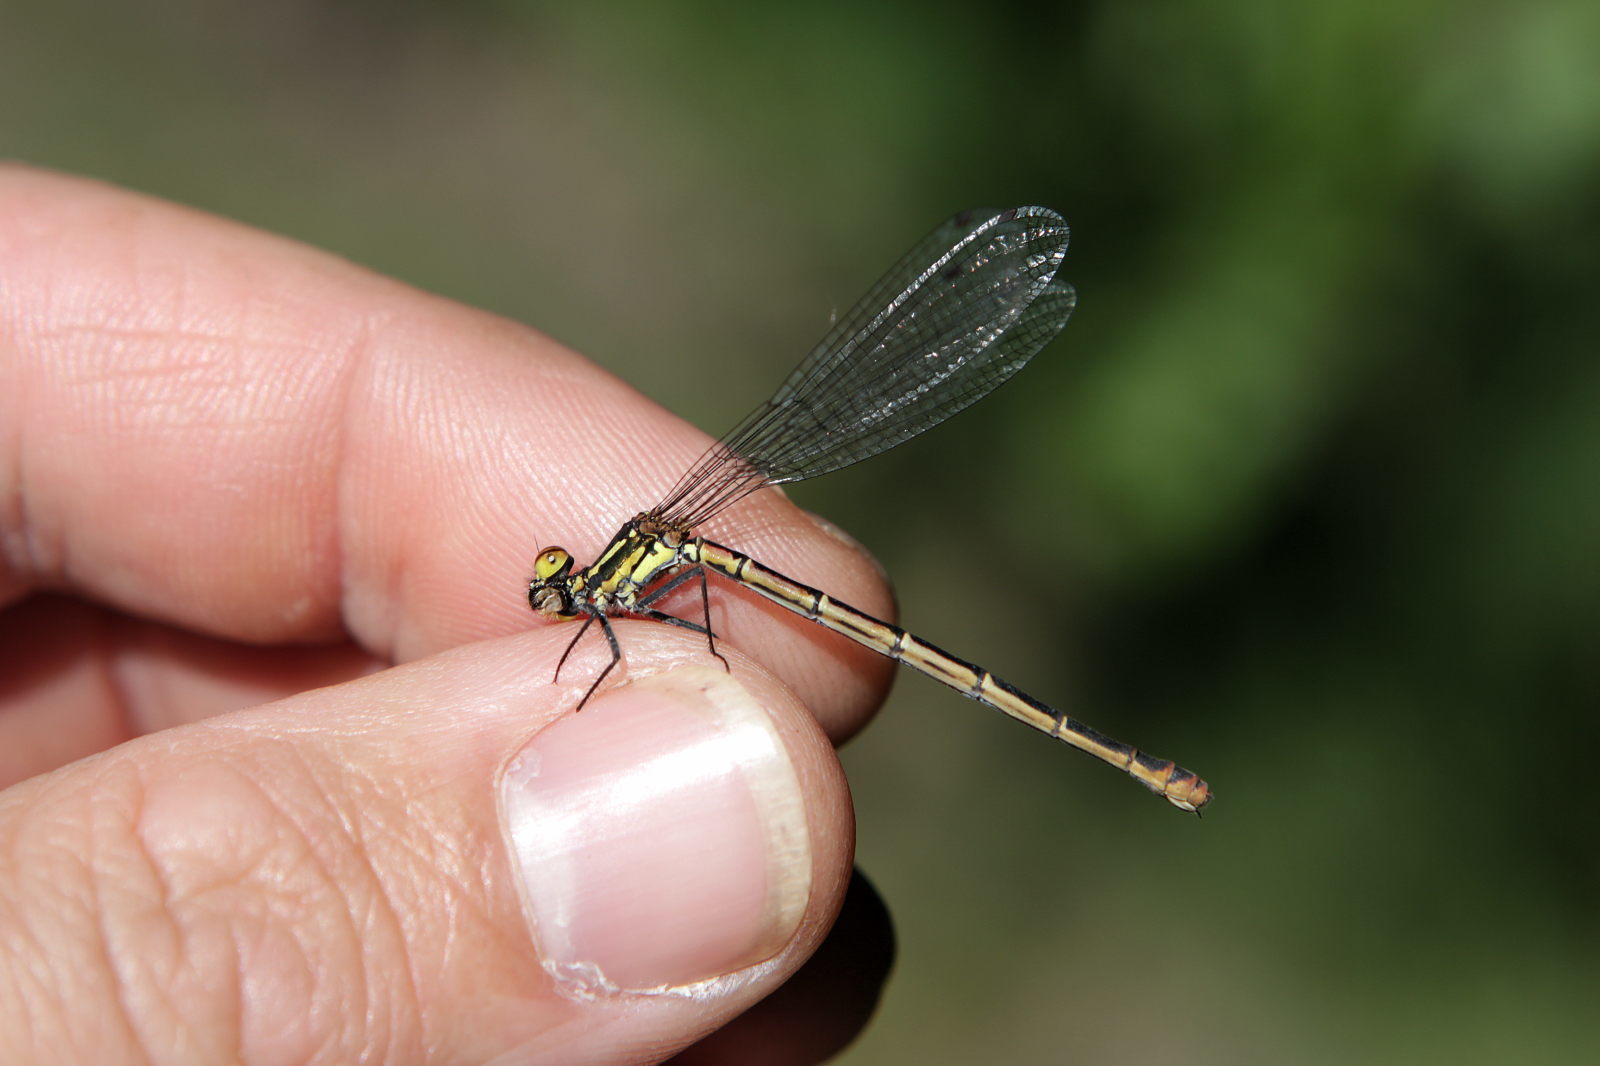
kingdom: Animalia
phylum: Arthropoda
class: Insecta
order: Odonata
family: Coenagrionidae
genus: Pyrrhosoma
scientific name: Pyrrhosoma nymphula
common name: Large red damsel
